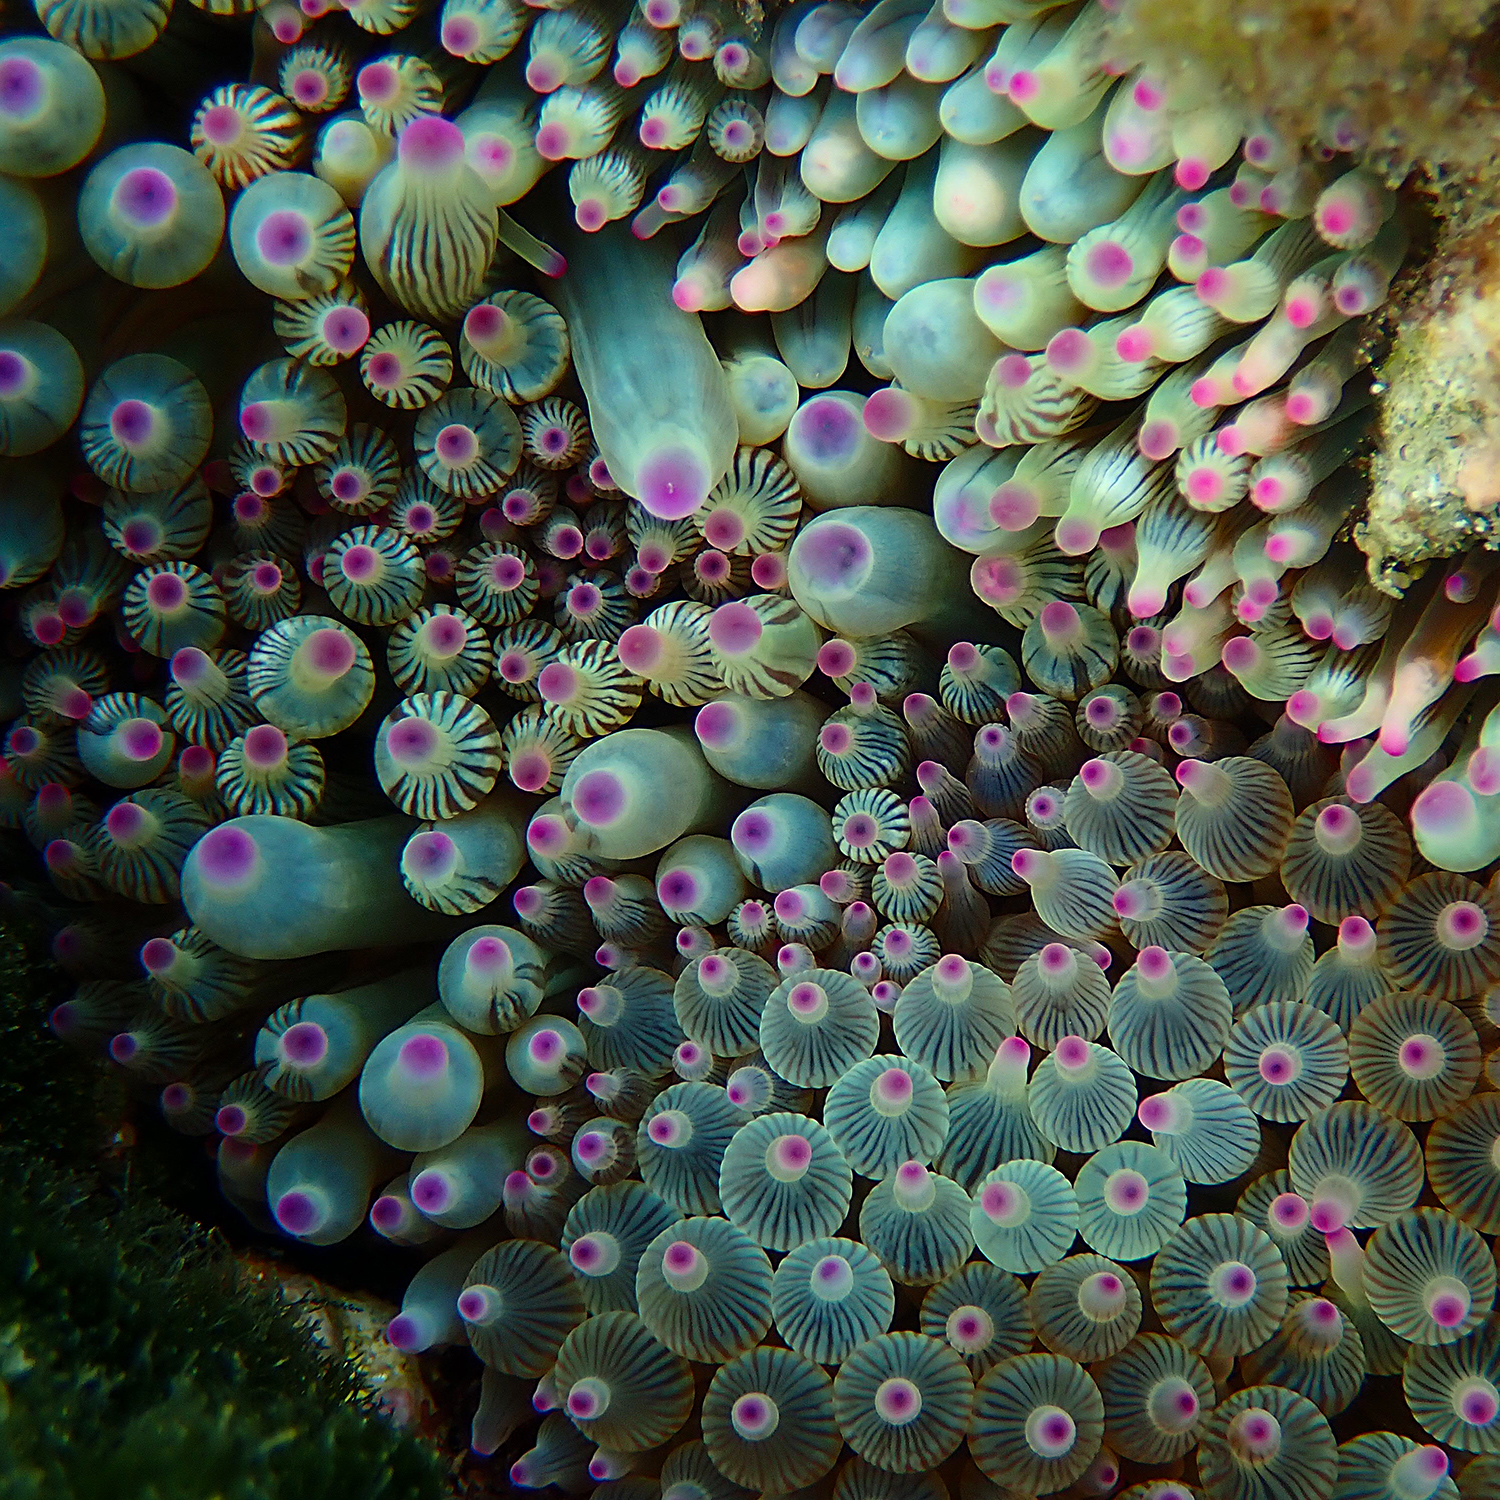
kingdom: Animalia
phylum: Cnidaria
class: Anthozoa
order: Actiniaria
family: Actiniidae
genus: Entacmaea
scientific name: Entacmaea quadricolor
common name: Bulb tentacle sea anemone
